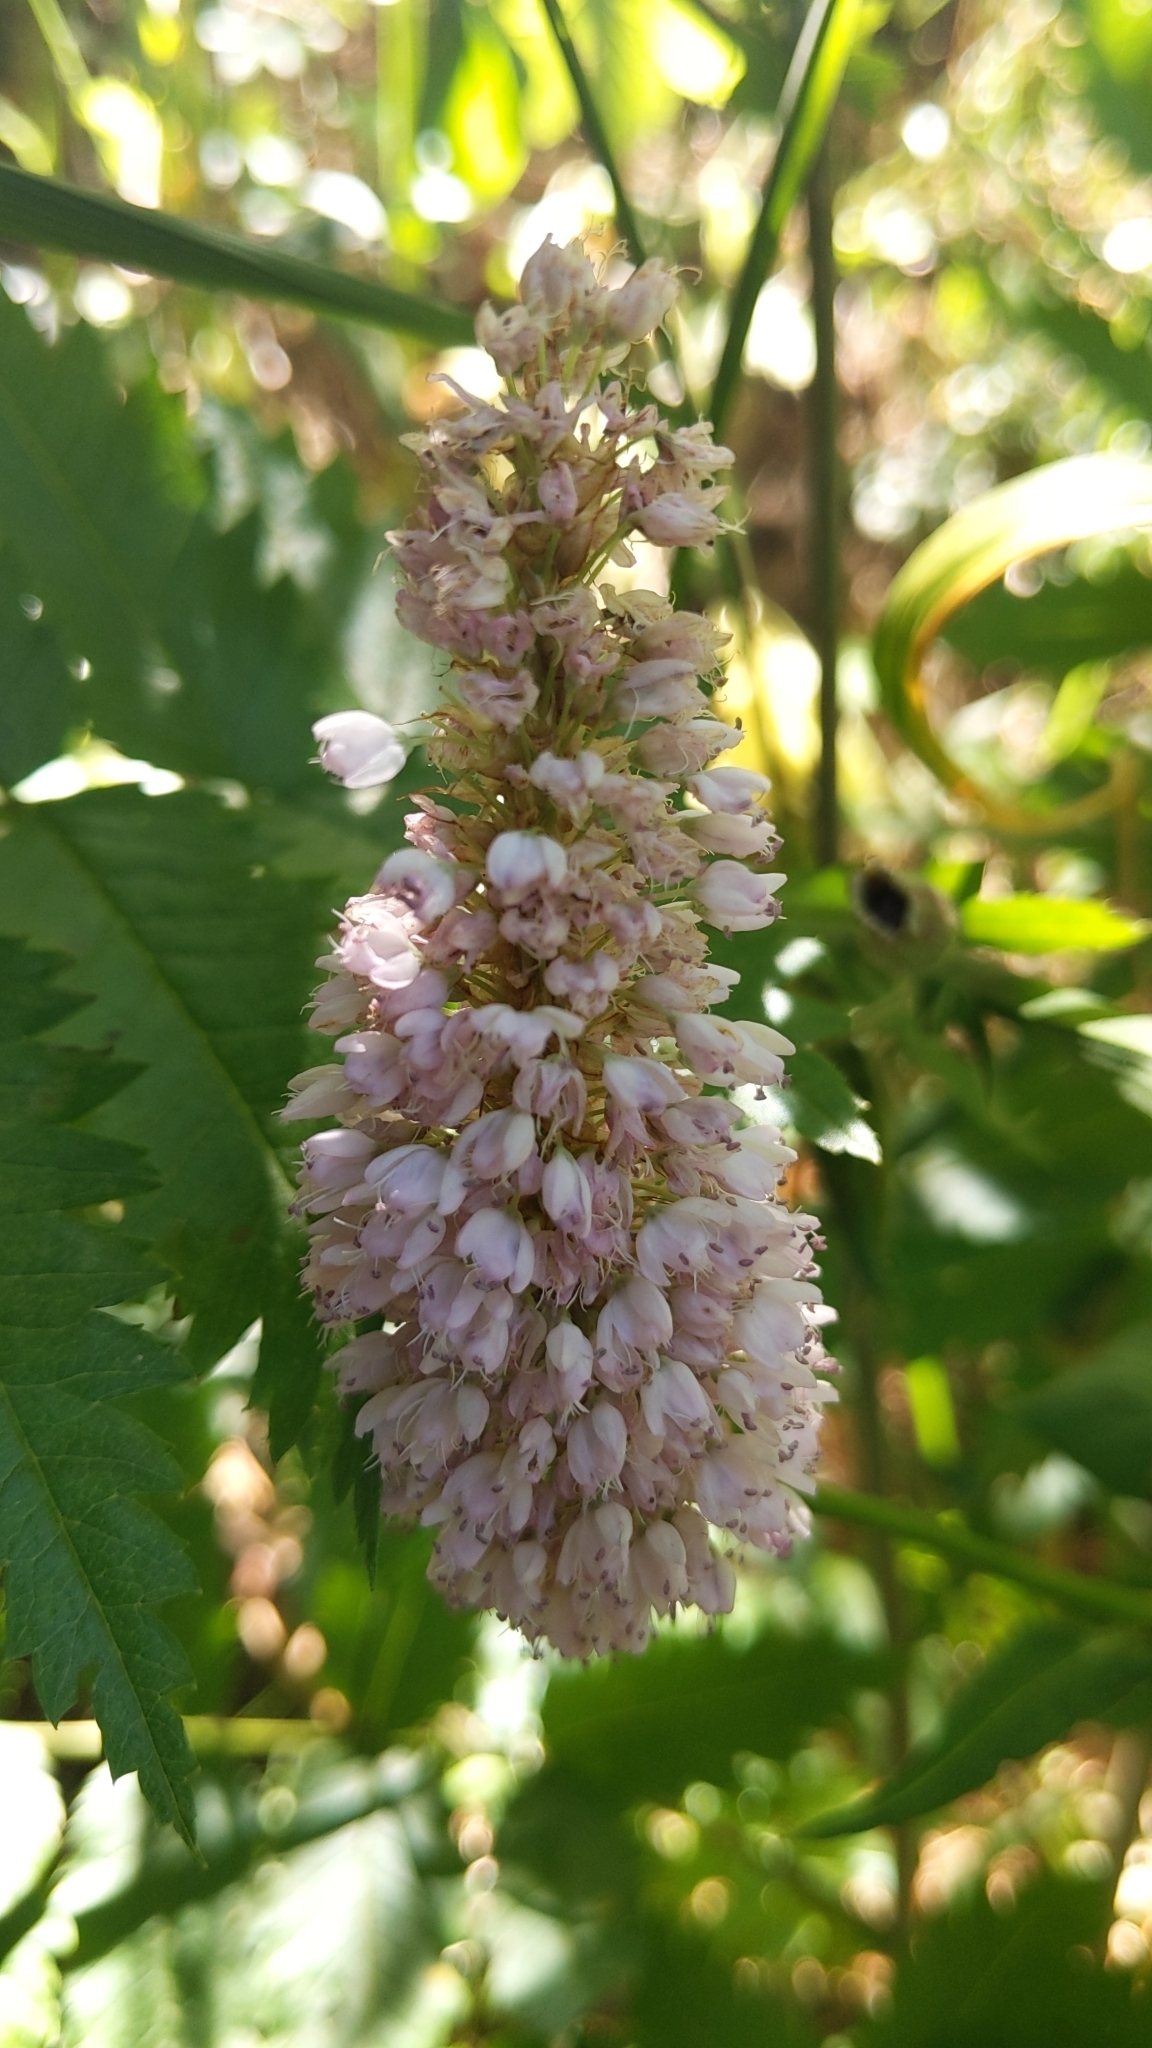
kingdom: Plantae
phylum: Tracheophyta
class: Magnoliopsida
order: Caryophyllales
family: Polygonaceae
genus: Bistorta
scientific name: Bistorta officinalis
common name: Common bistort
